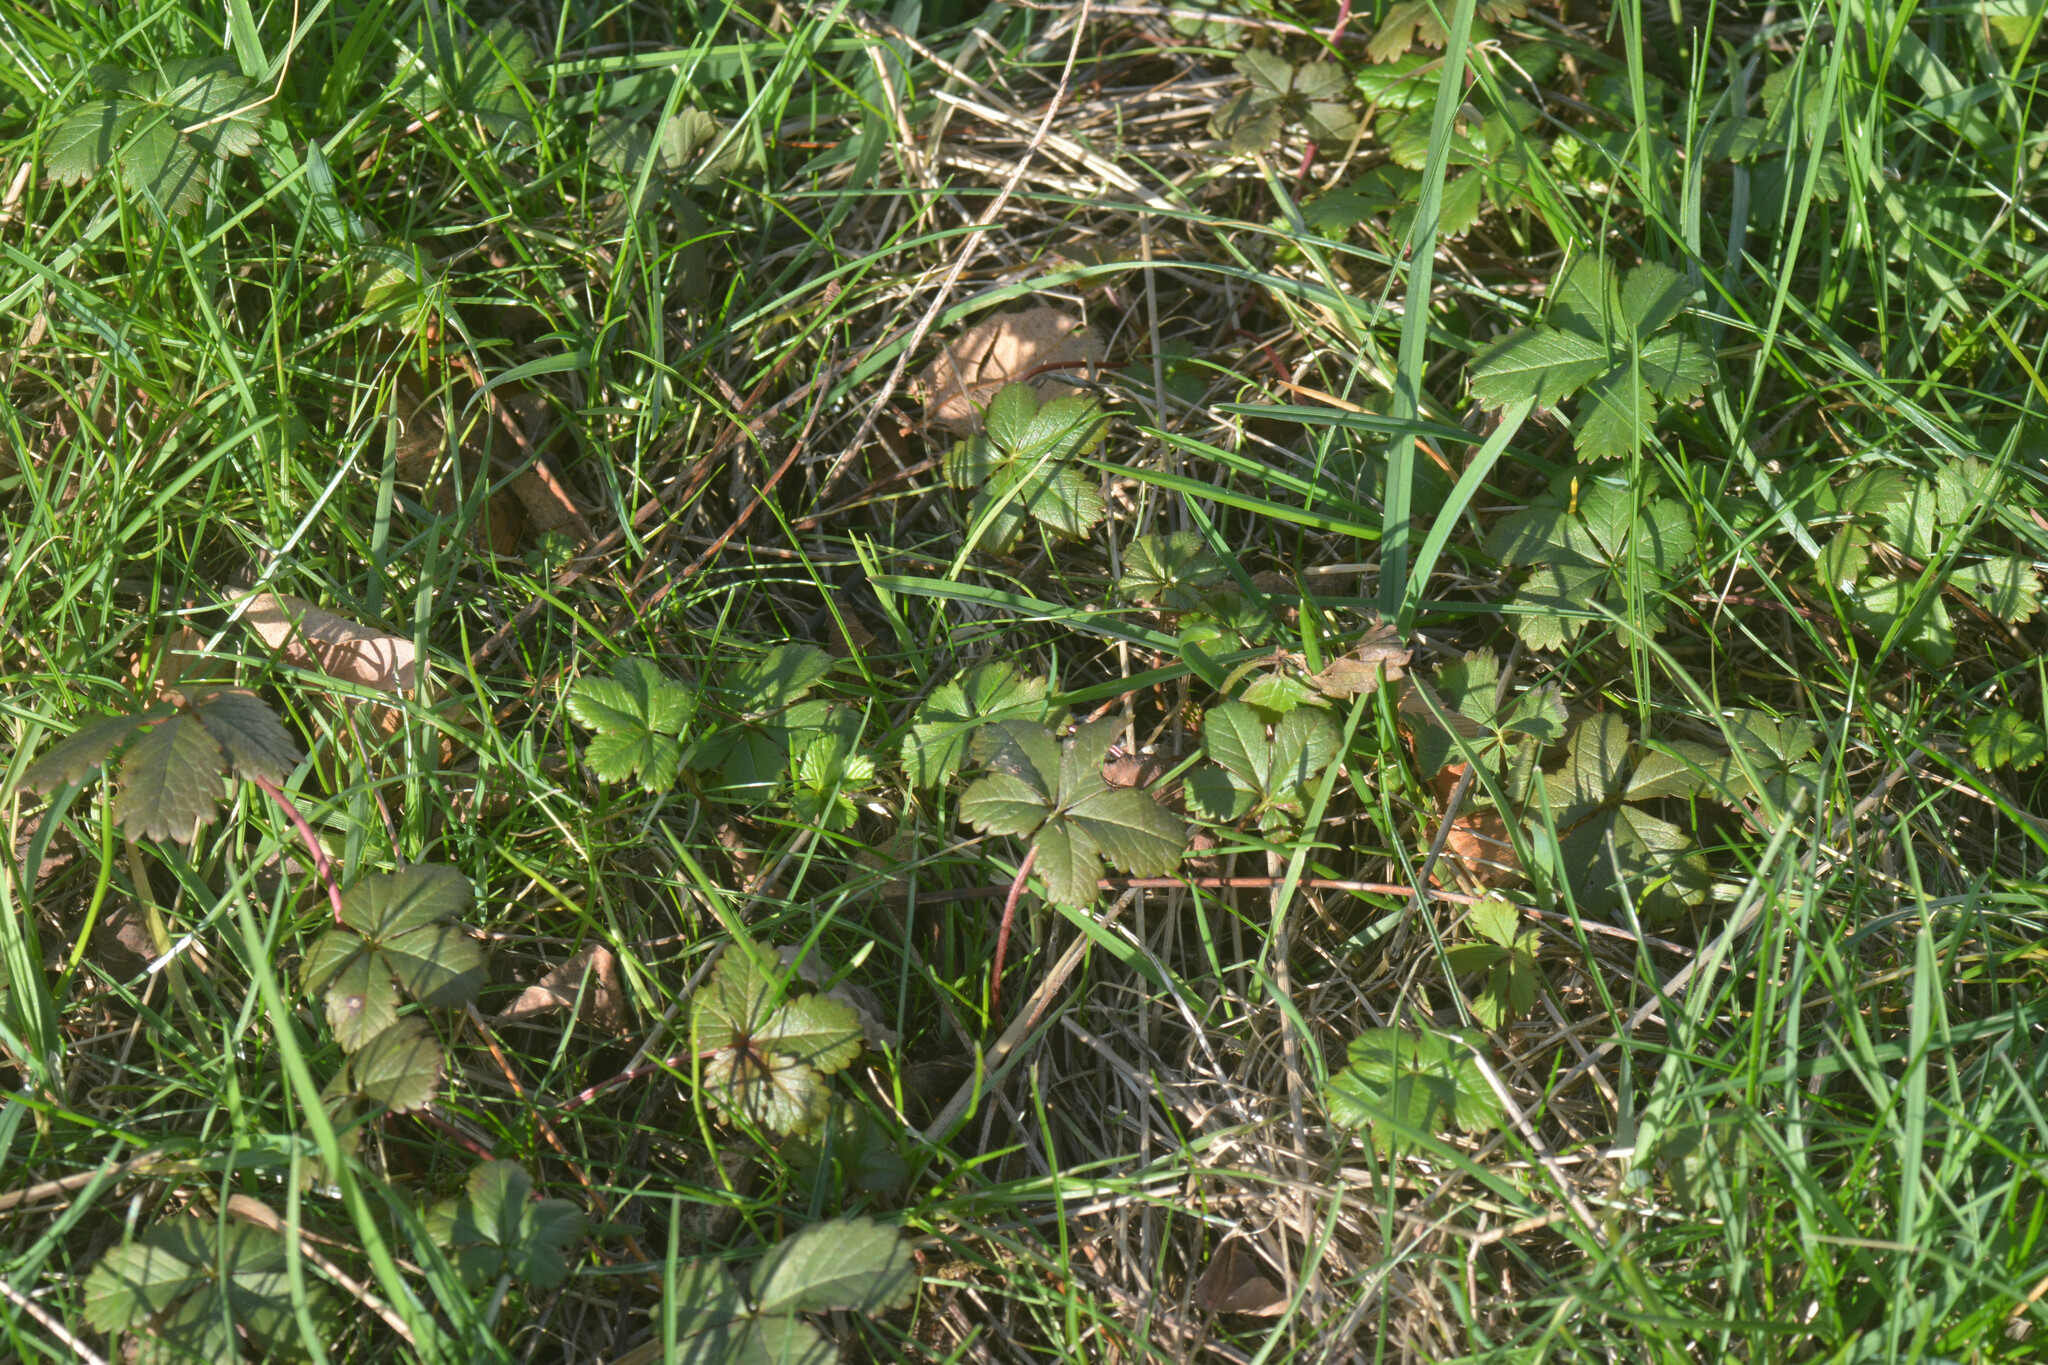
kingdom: Plantae
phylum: Tracheophyta
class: Magnoliopsida
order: Rosales
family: Rosaceae
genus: Potentilla
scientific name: Potentilla reptans
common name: Creeping cinquefoil
